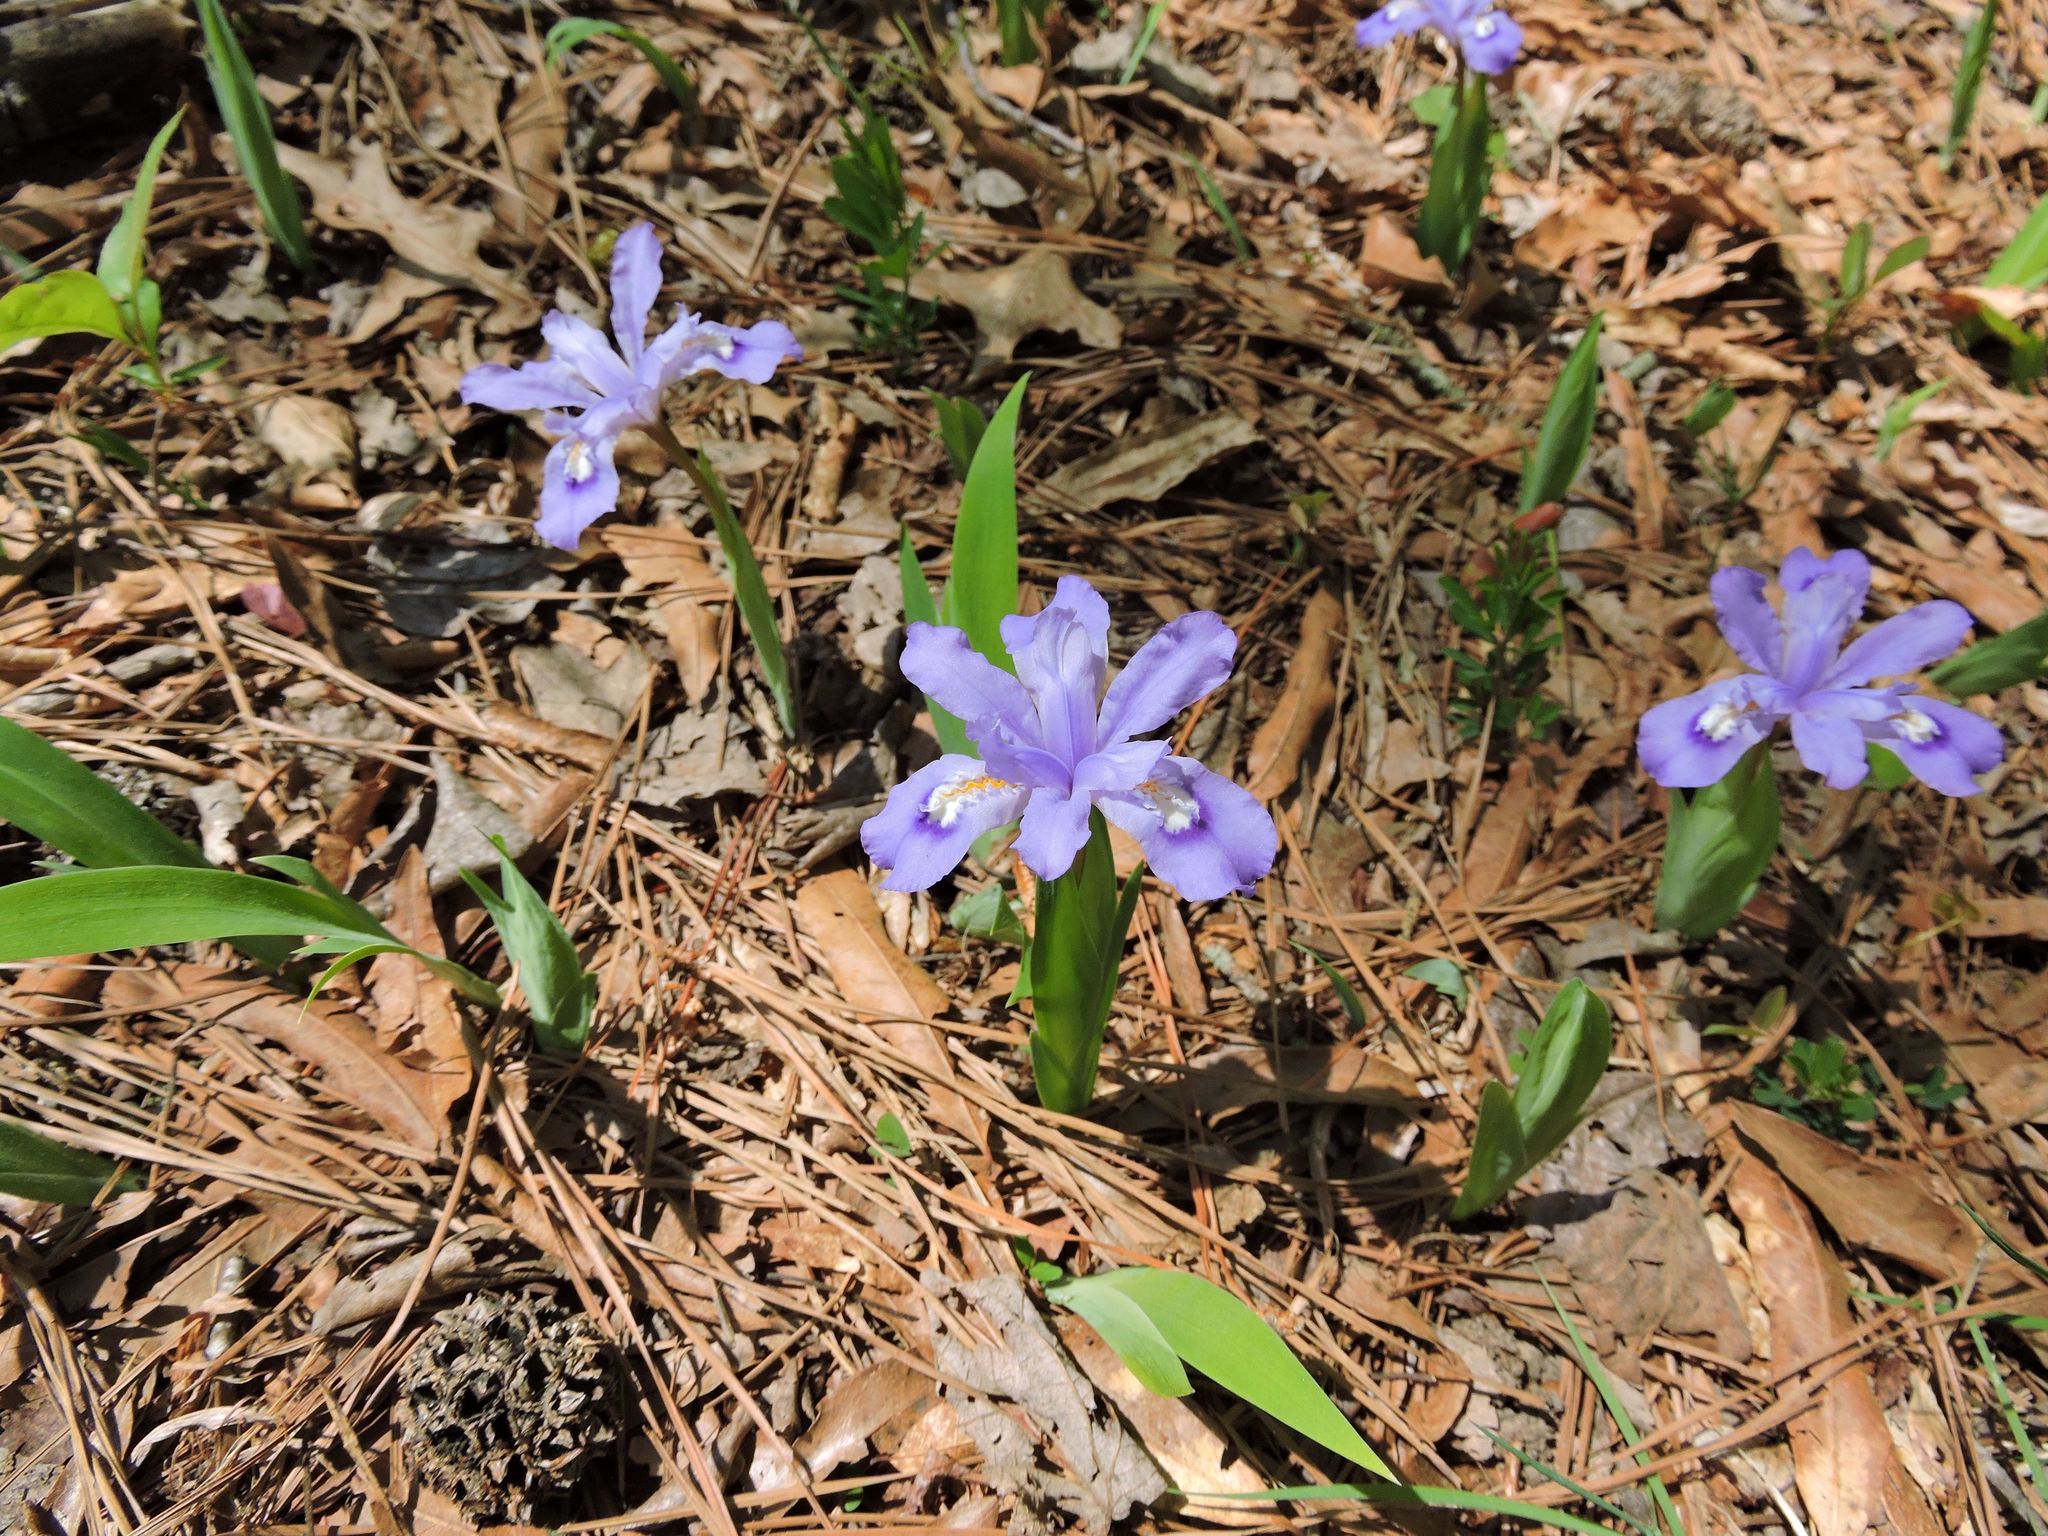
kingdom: Plantae
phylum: Tracheophyta
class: Liliopsida
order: Asparagales
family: Iridaceae
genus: Iris
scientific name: Iris cristata
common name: Crested iris
